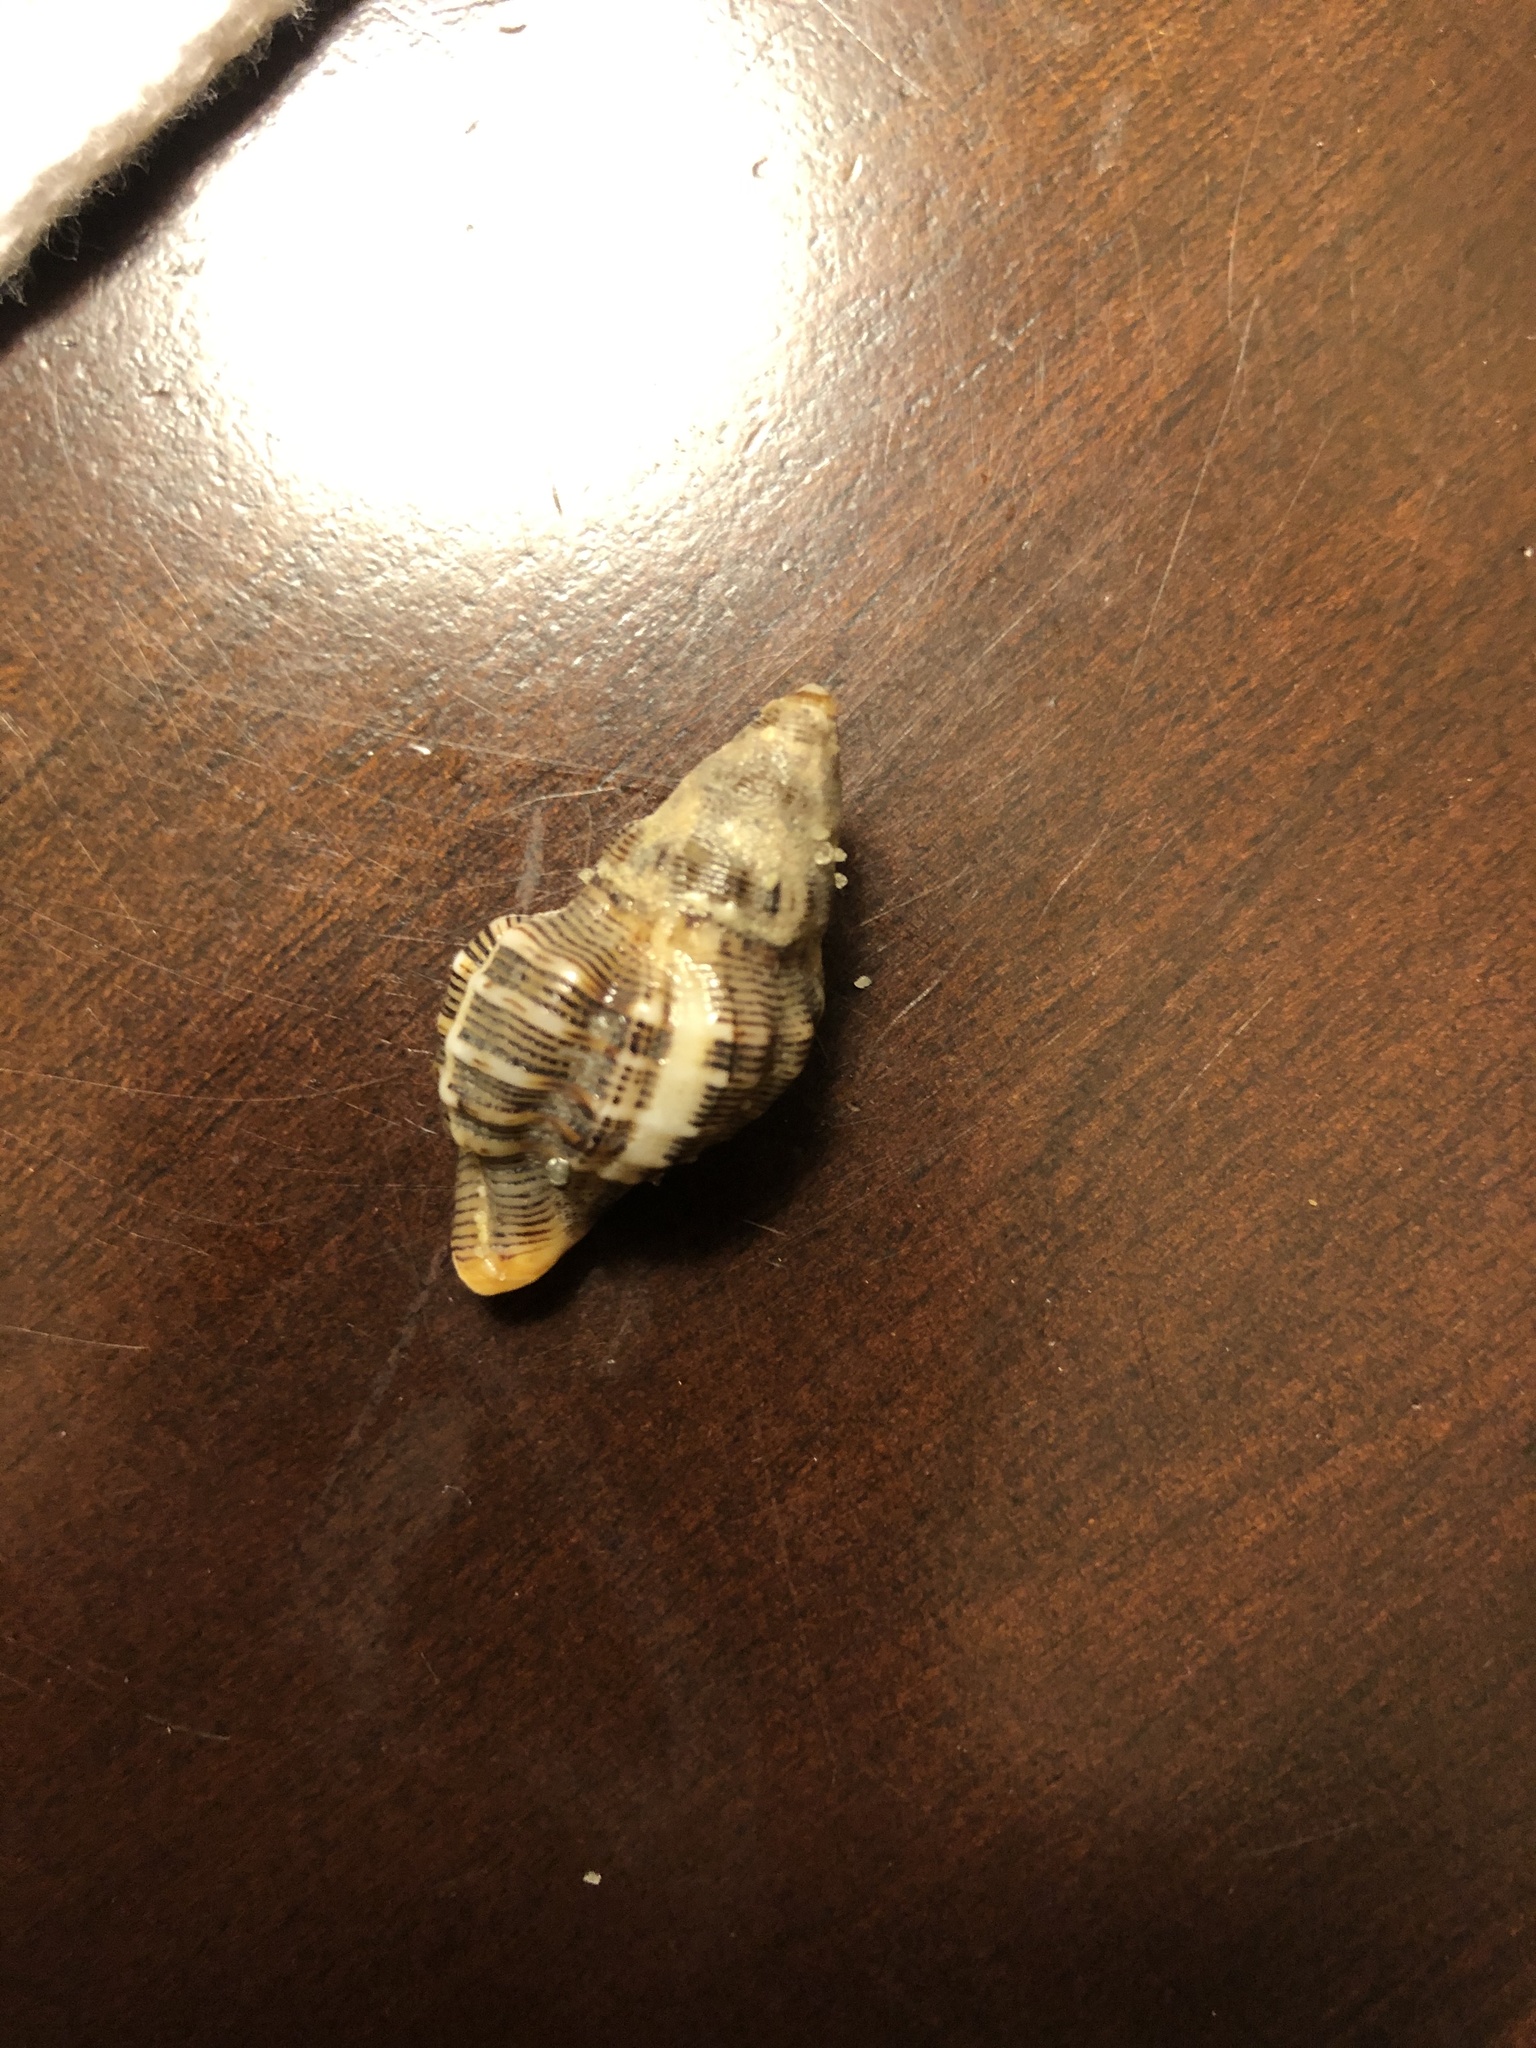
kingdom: Animalia
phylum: Mollusca
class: Gastropoda
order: Neogastropoda
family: Muricidae
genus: Roperia
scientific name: Roperia poulsoni
